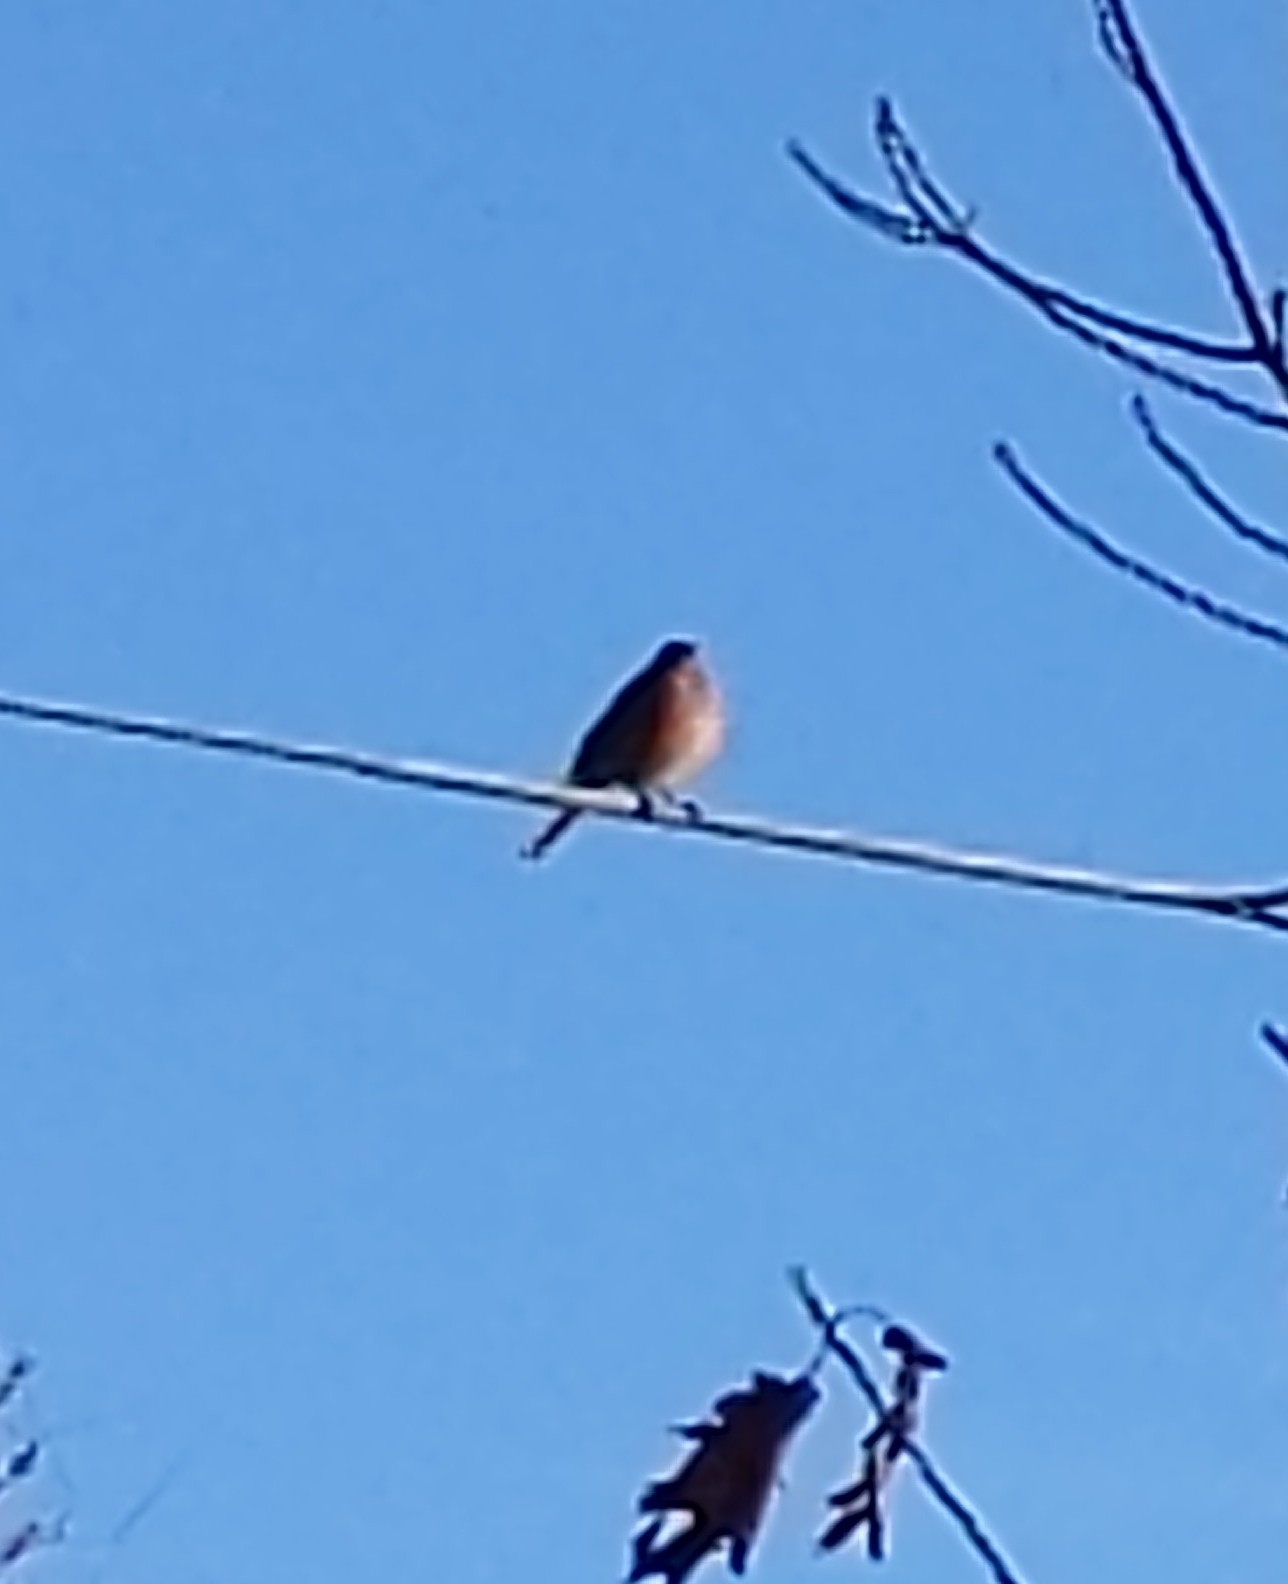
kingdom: Animalia
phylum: Chordata
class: Aves
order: Passeriformes
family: Turdidae
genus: Sialia
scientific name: Sialia sialis
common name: Eastern bluebird
